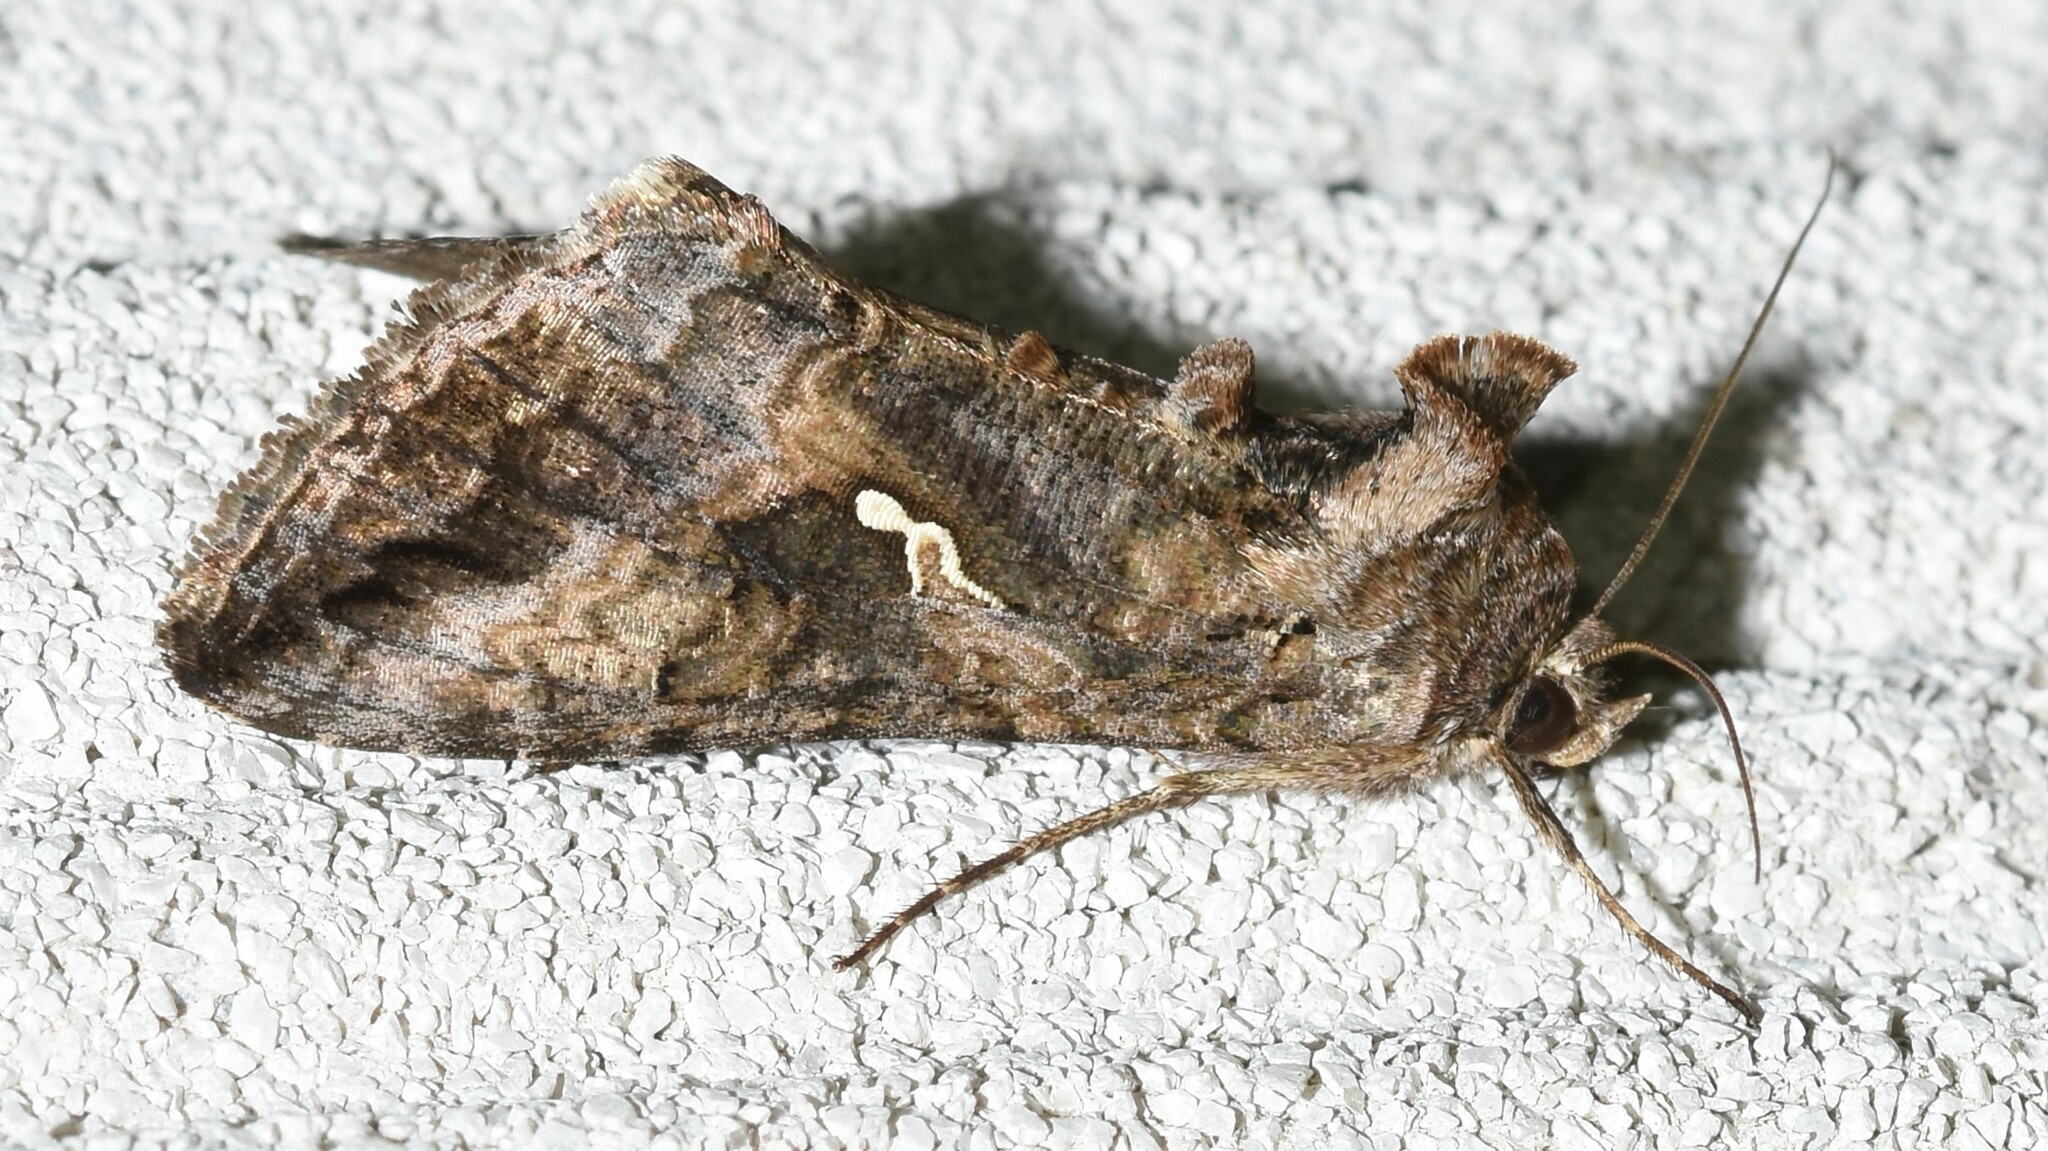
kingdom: Animalia
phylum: Arthropoda
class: Insecta
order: Lepidoptera
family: Noctuidae
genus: Rachiplusia
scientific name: Rachiplusia ou
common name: Gray looper moth
